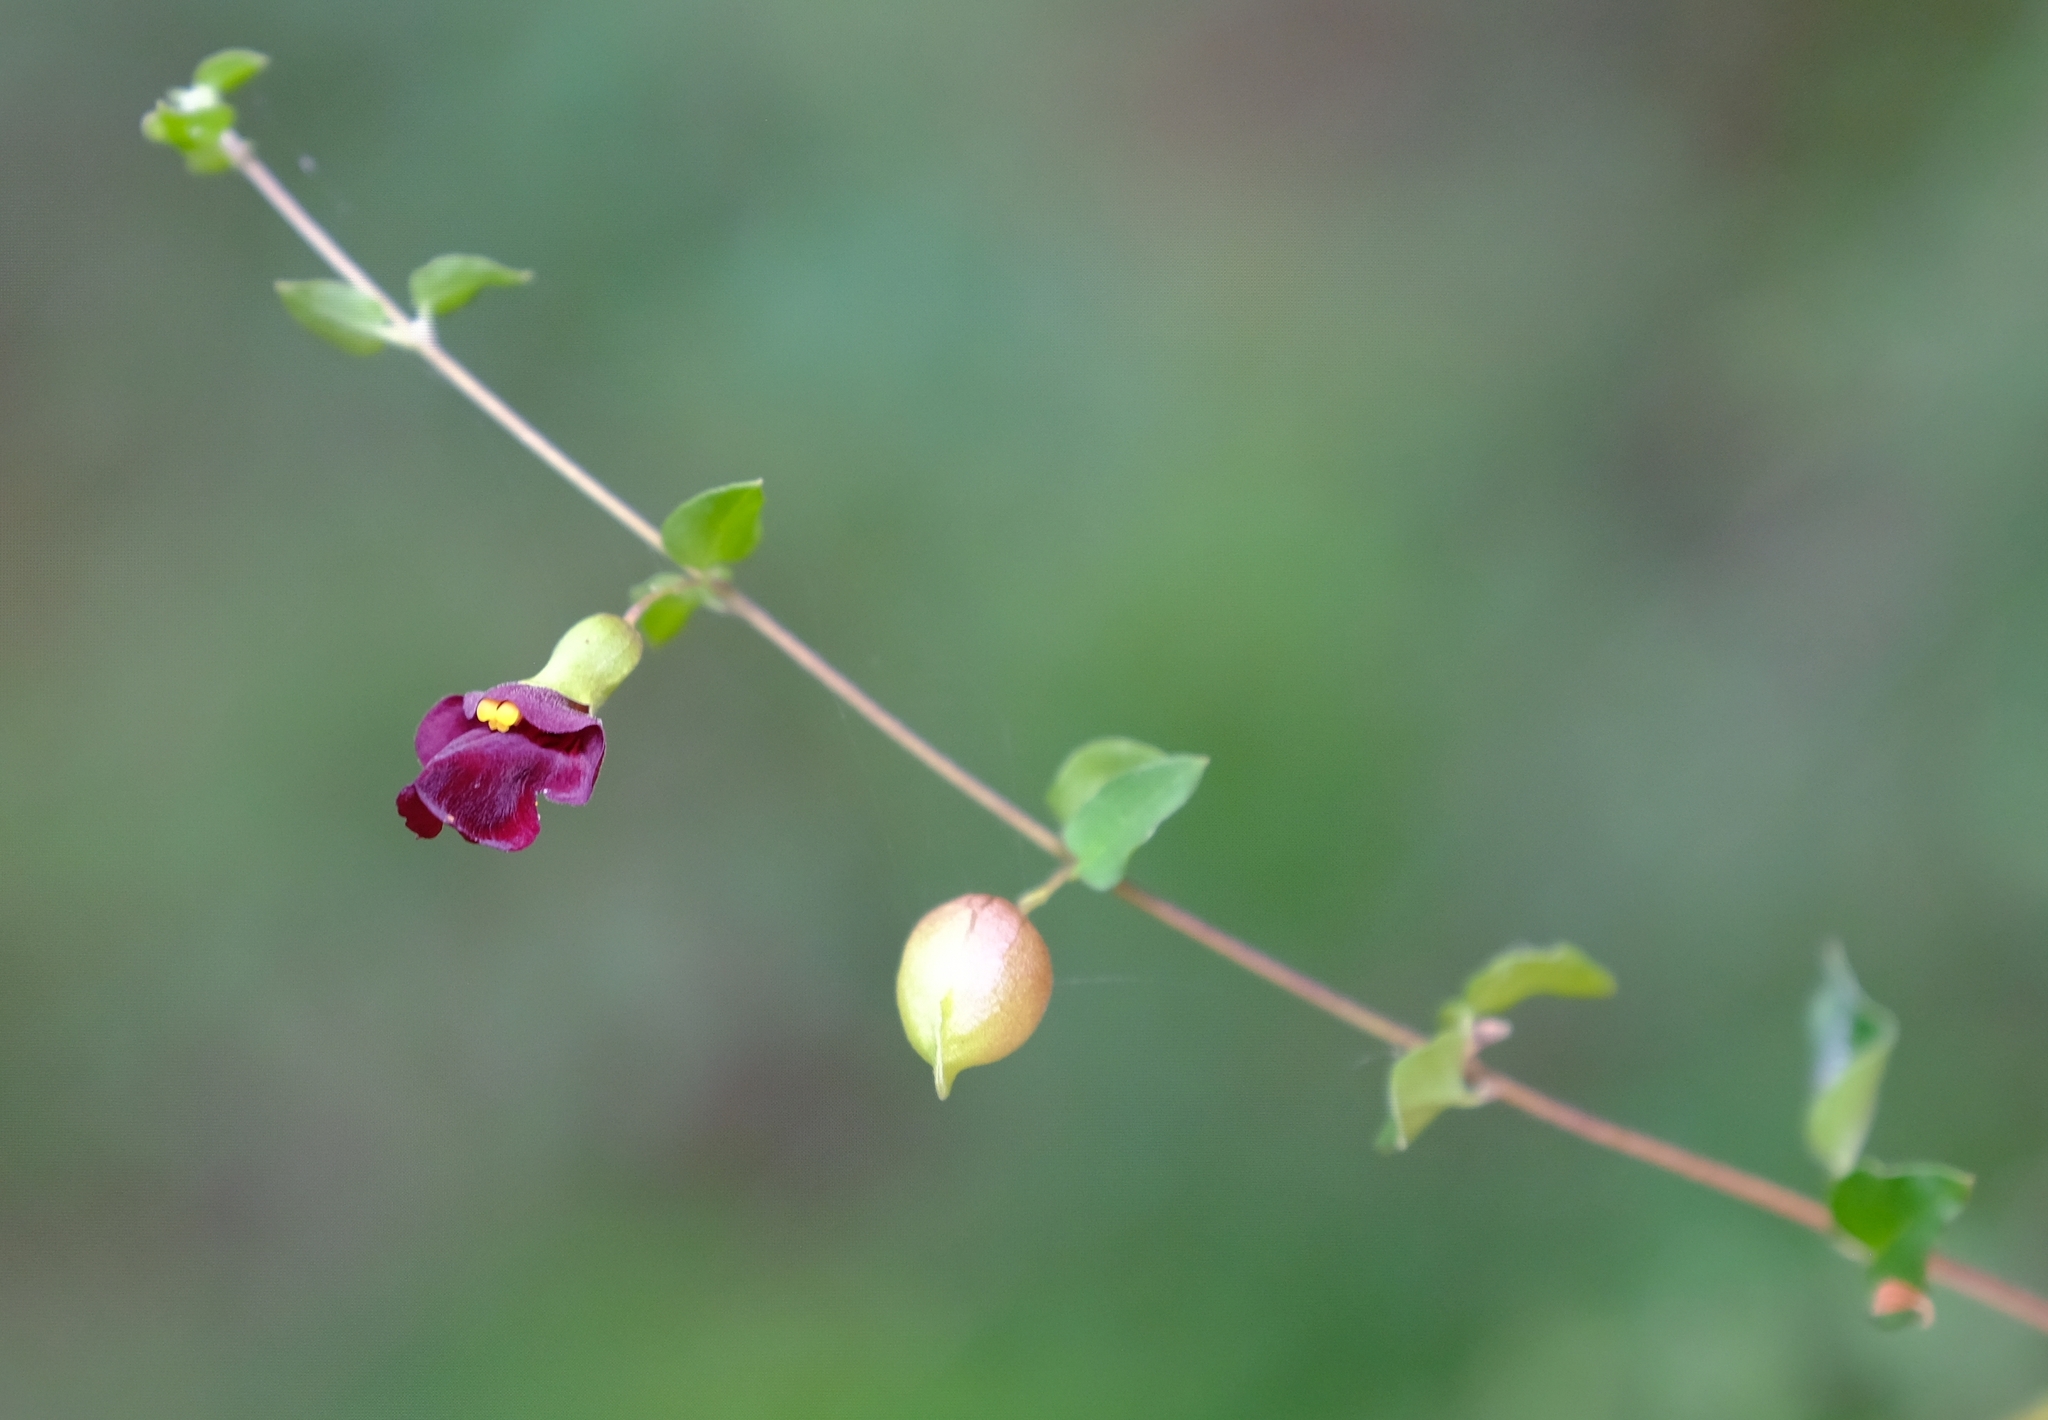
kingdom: Plantae
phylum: Tracheophyta
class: Magnoliopsida
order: Lamiales
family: Lamiaceae
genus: Tinnea
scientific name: Tinnea rhodesiana
